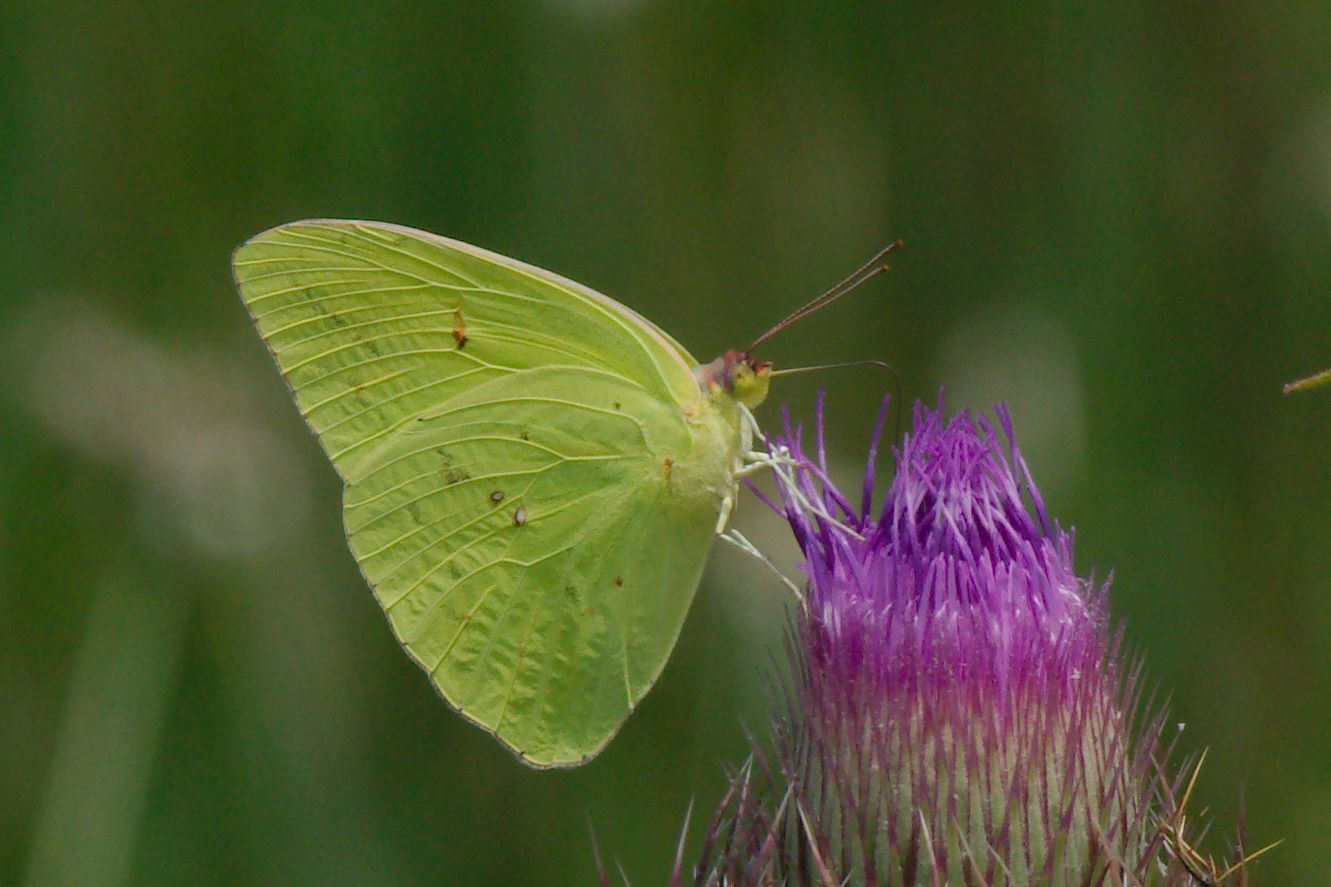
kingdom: Animalia
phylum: Arthropoda
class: Insecta
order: Lepidoptera
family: Pieridae
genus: Phoebis
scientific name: Phoebis sennae
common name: Cloudless sulphur
